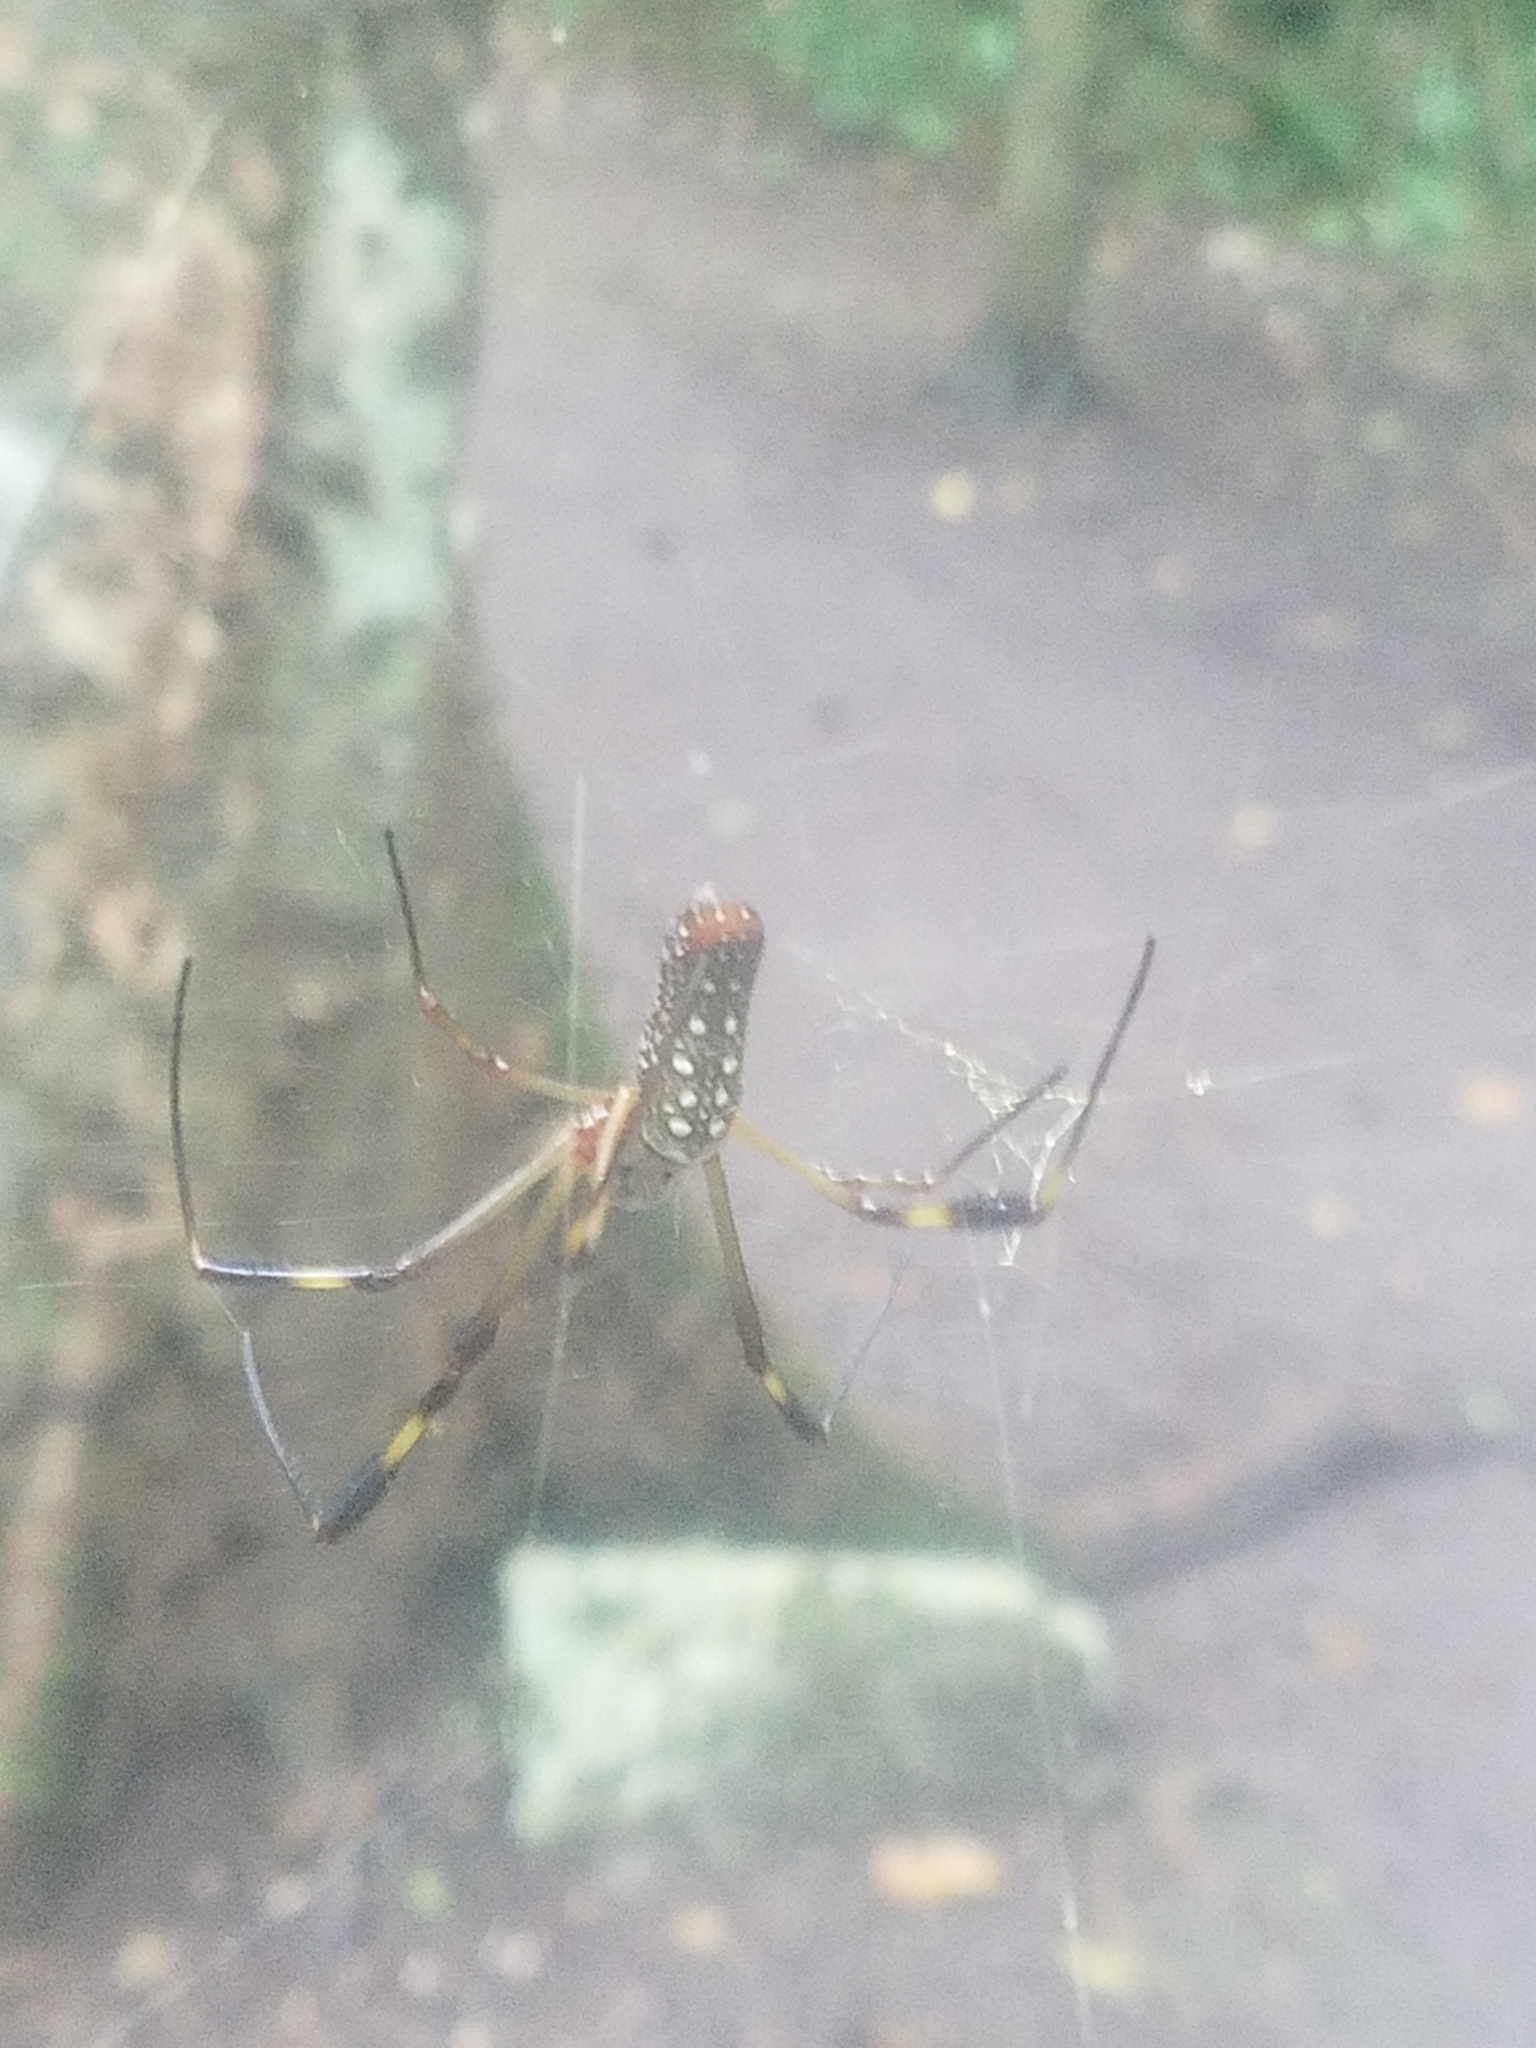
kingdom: Animalia
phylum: Arthropoda
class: Arachnida
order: Araneae
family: Araneidae
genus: Trichonephila
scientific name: Trichonephila clavipes
